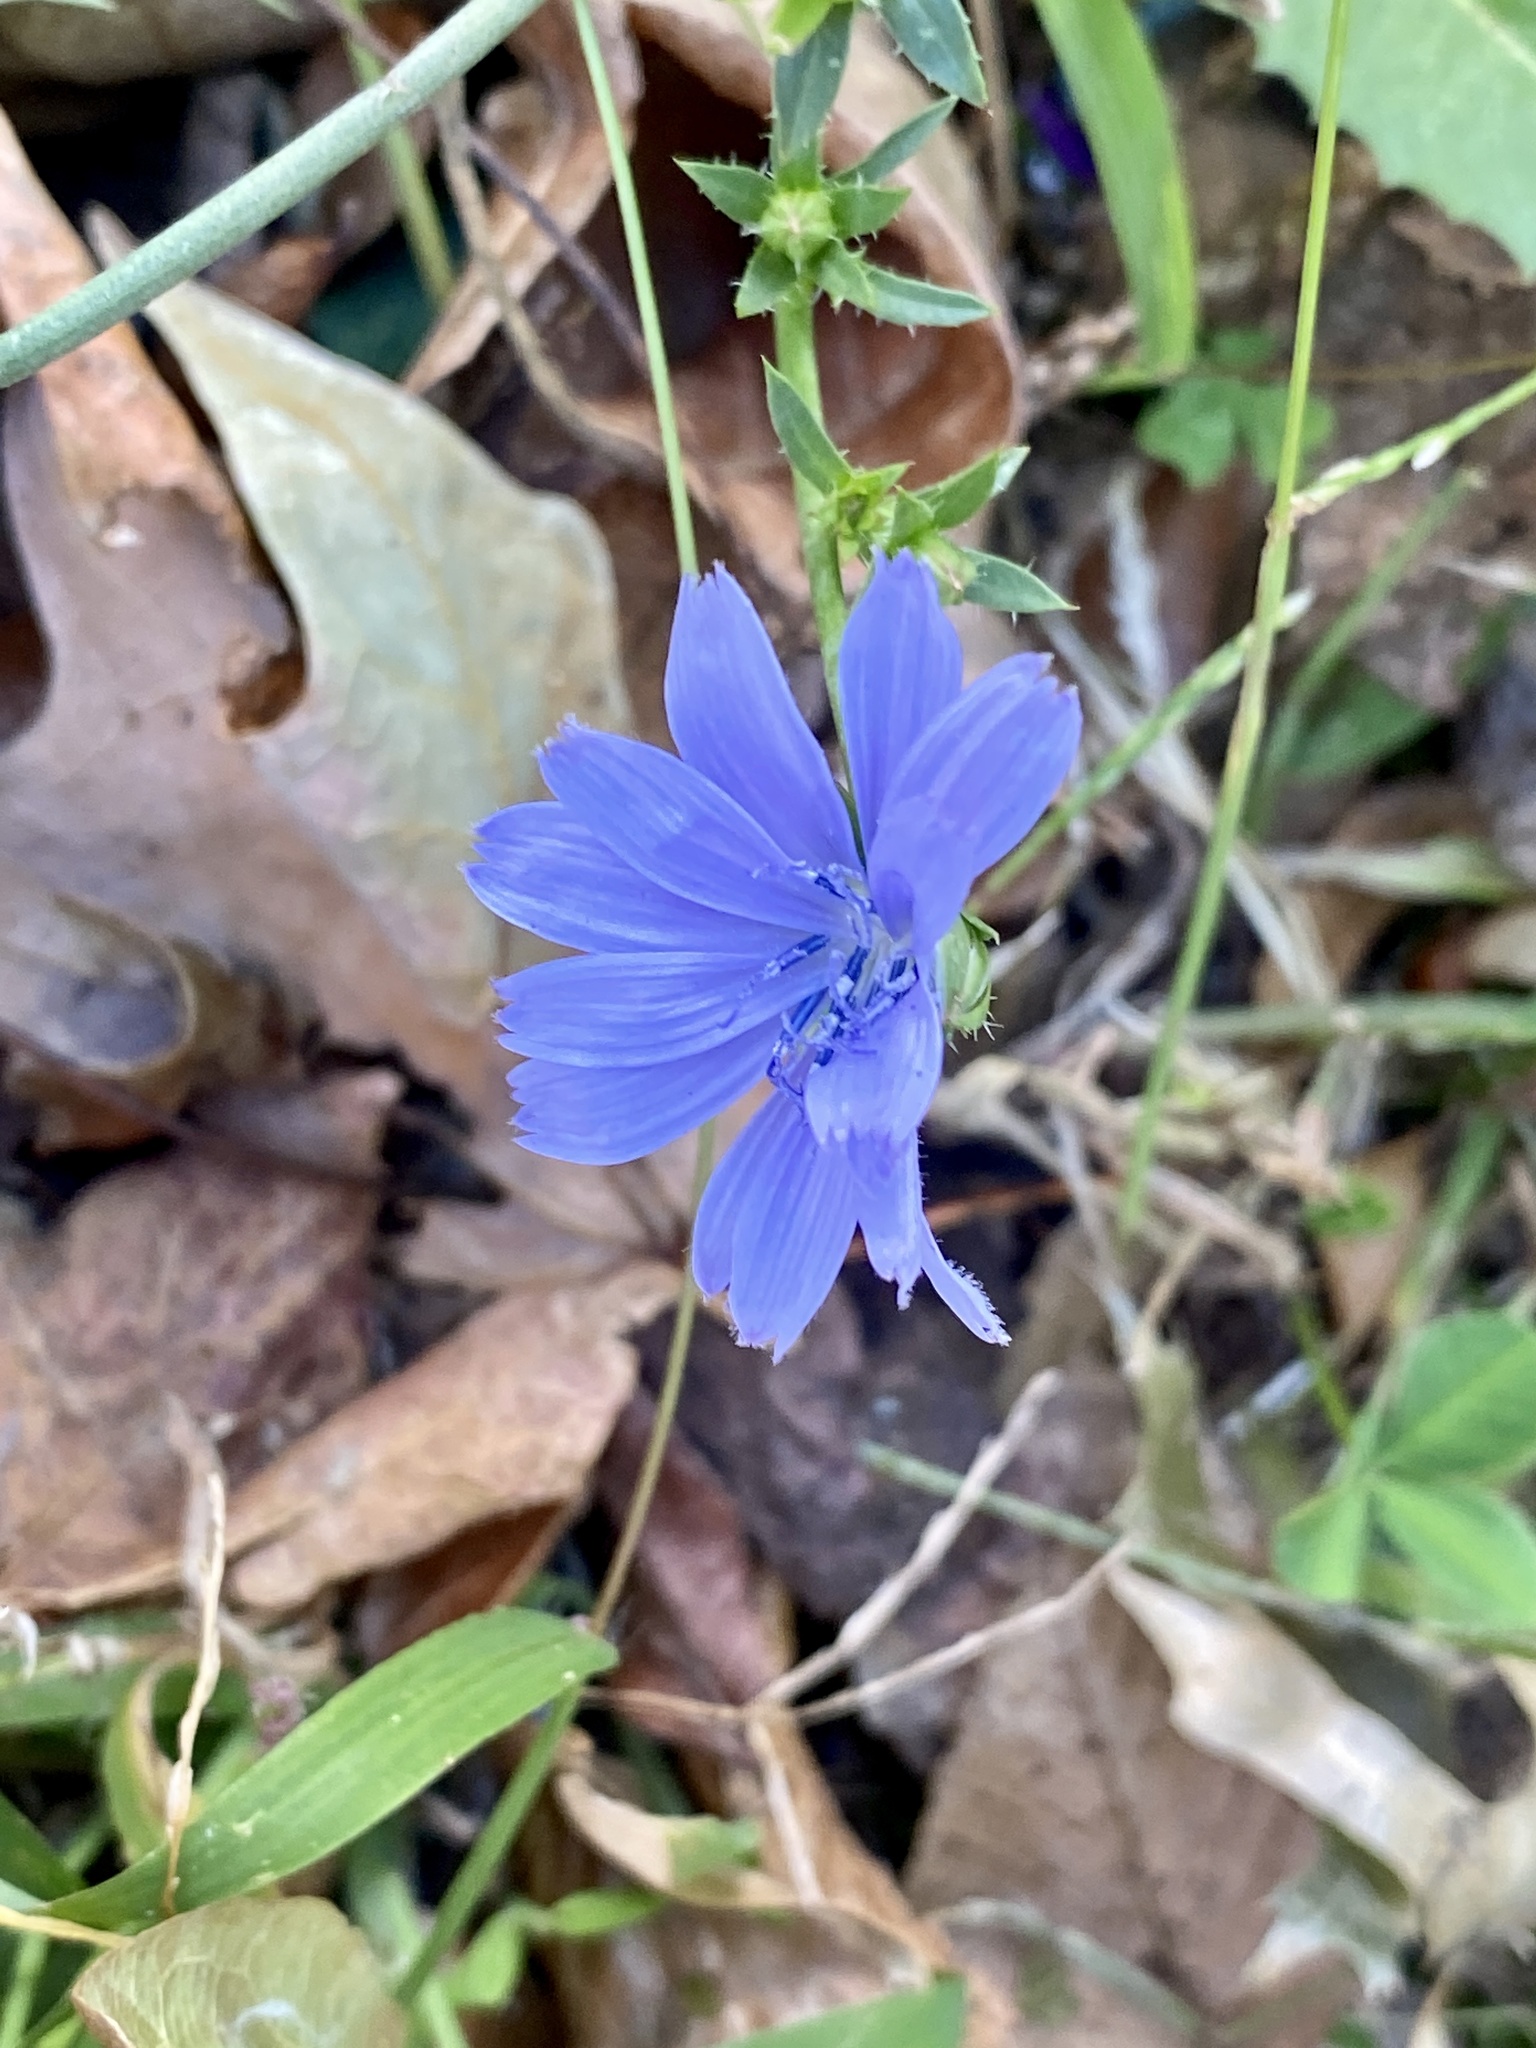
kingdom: Plantae
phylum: Tracheophyta
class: Magnoliopsida
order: Asterales
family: Asteraceae
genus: Cichorium
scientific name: Cichorium intybus
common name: Chicory
